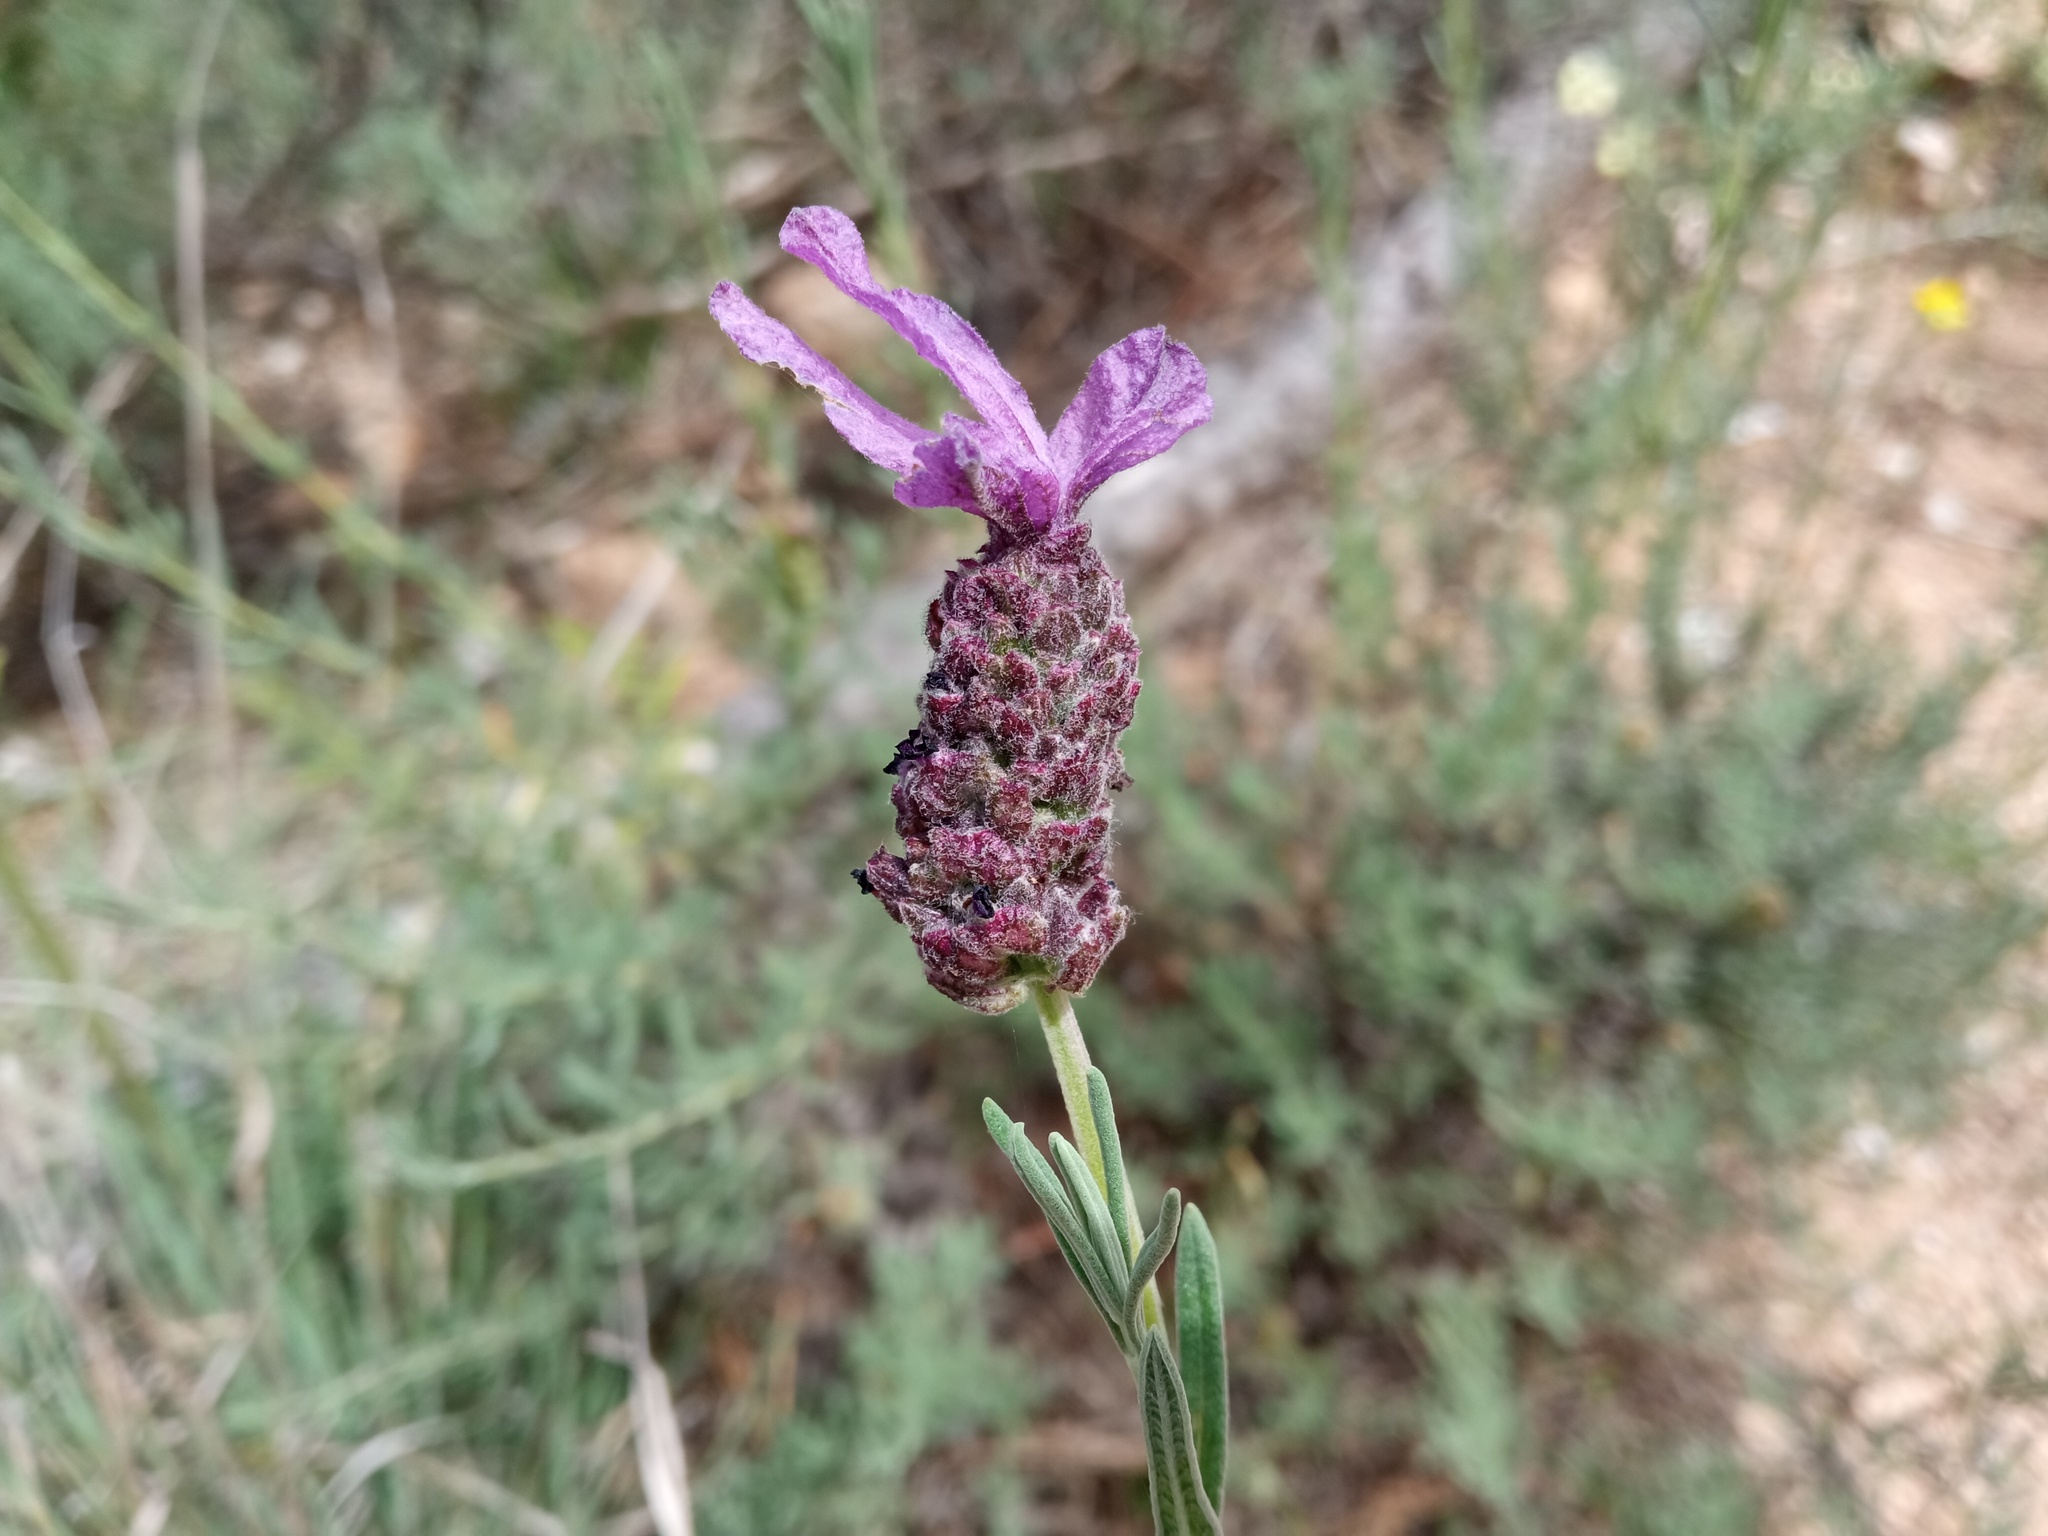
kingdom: Plantae
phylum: Tracheophyta
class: Magnoliopsida
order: Lamiales
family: Lamiaceae
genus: Lavandula
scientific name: Lavandula stoechas
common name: French lavender
